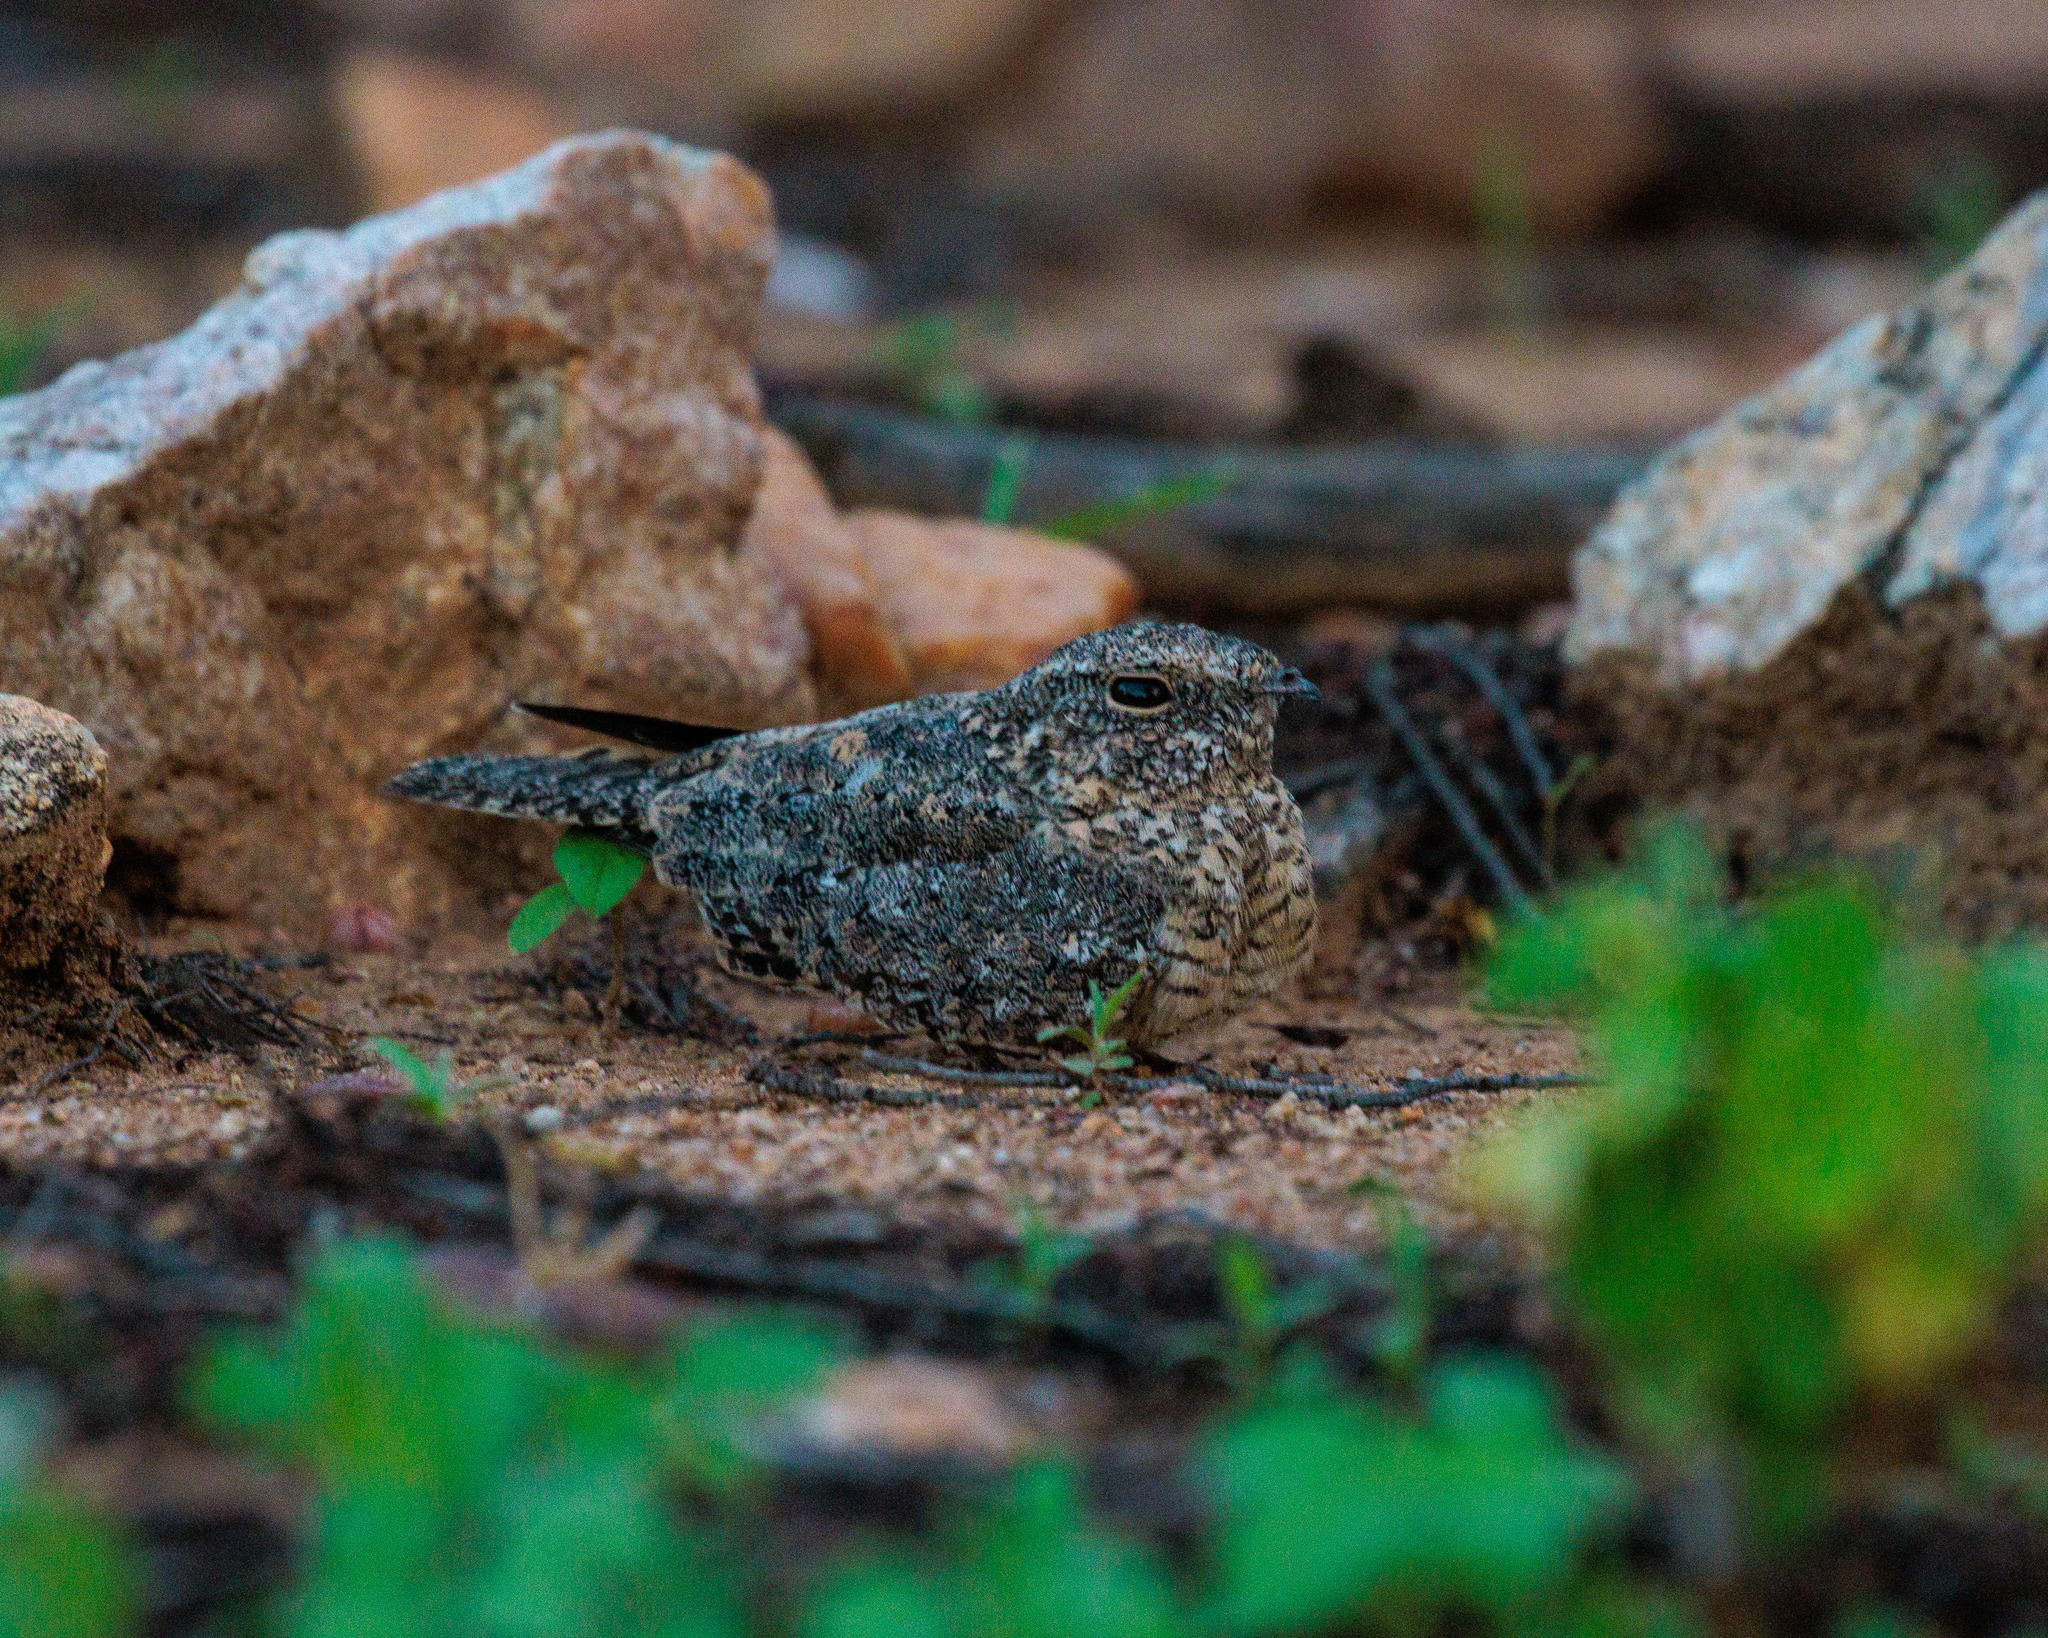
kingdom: Animalia
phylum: Chordata
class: Aves
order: Caprimulgiformes
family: Caprimulgidae
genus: Nyctipolus
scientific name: Nyctipolus hirundinaceus
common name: Pygmy nightjar
